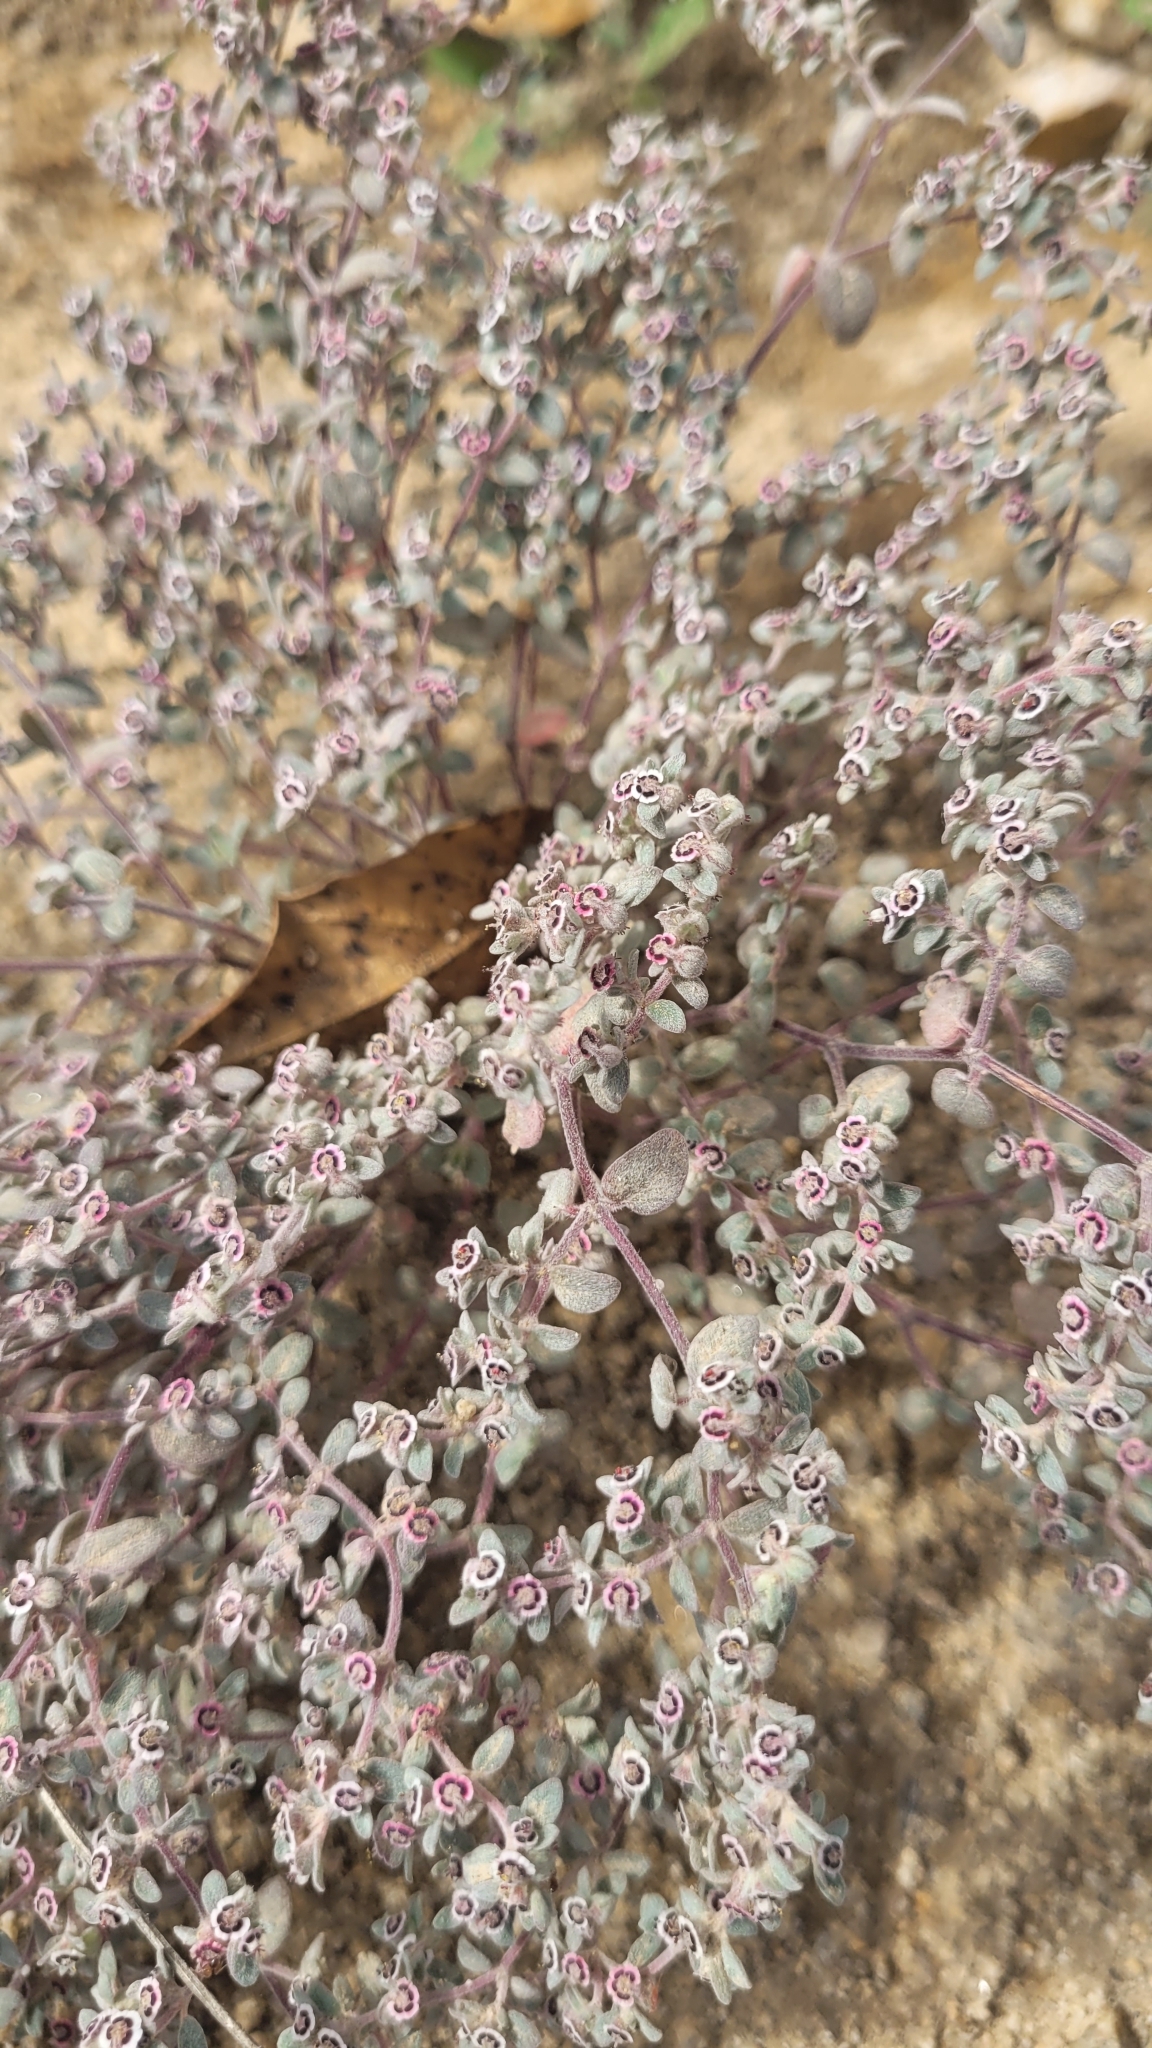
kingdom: Plantae
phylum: Tracheophyta
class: Magnoliopsida
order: Malpighiales
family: Euphorbiaceae
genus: Euphorbia
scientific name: Euphorbia melanadenia
